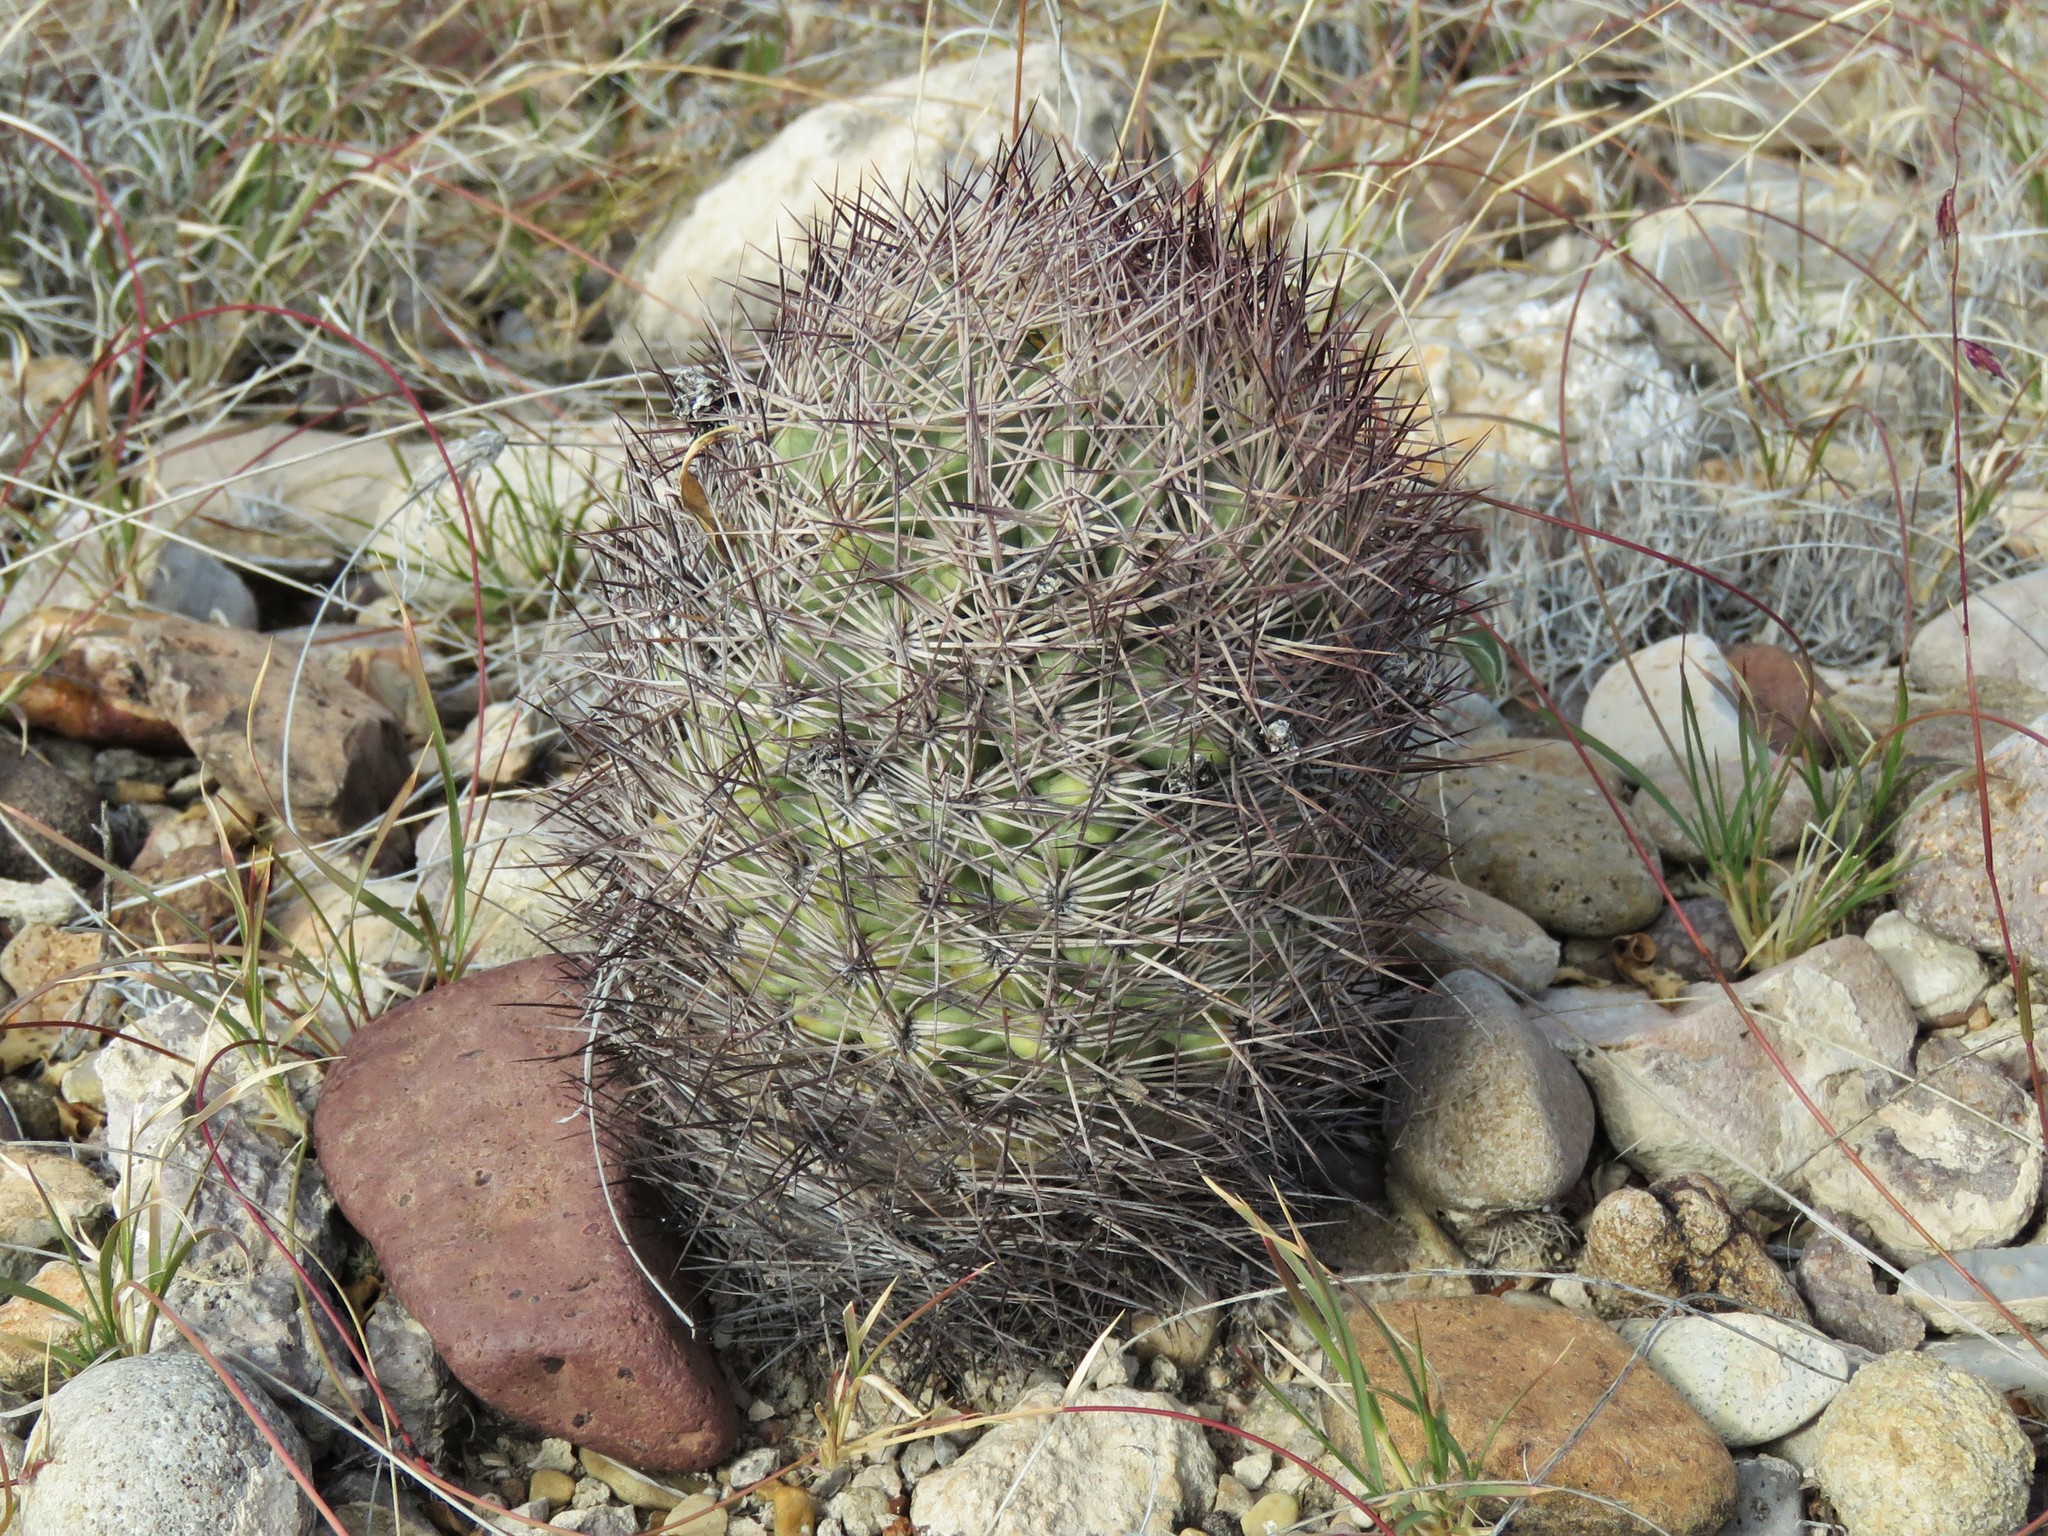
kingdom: Plantae
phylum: Tracheophyta
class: Magnoliopsida
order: Caryophyllales
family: Cactaceae
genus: Sclerocactus
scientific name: Sclerocactus warnockii
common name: Pineapple cactus
